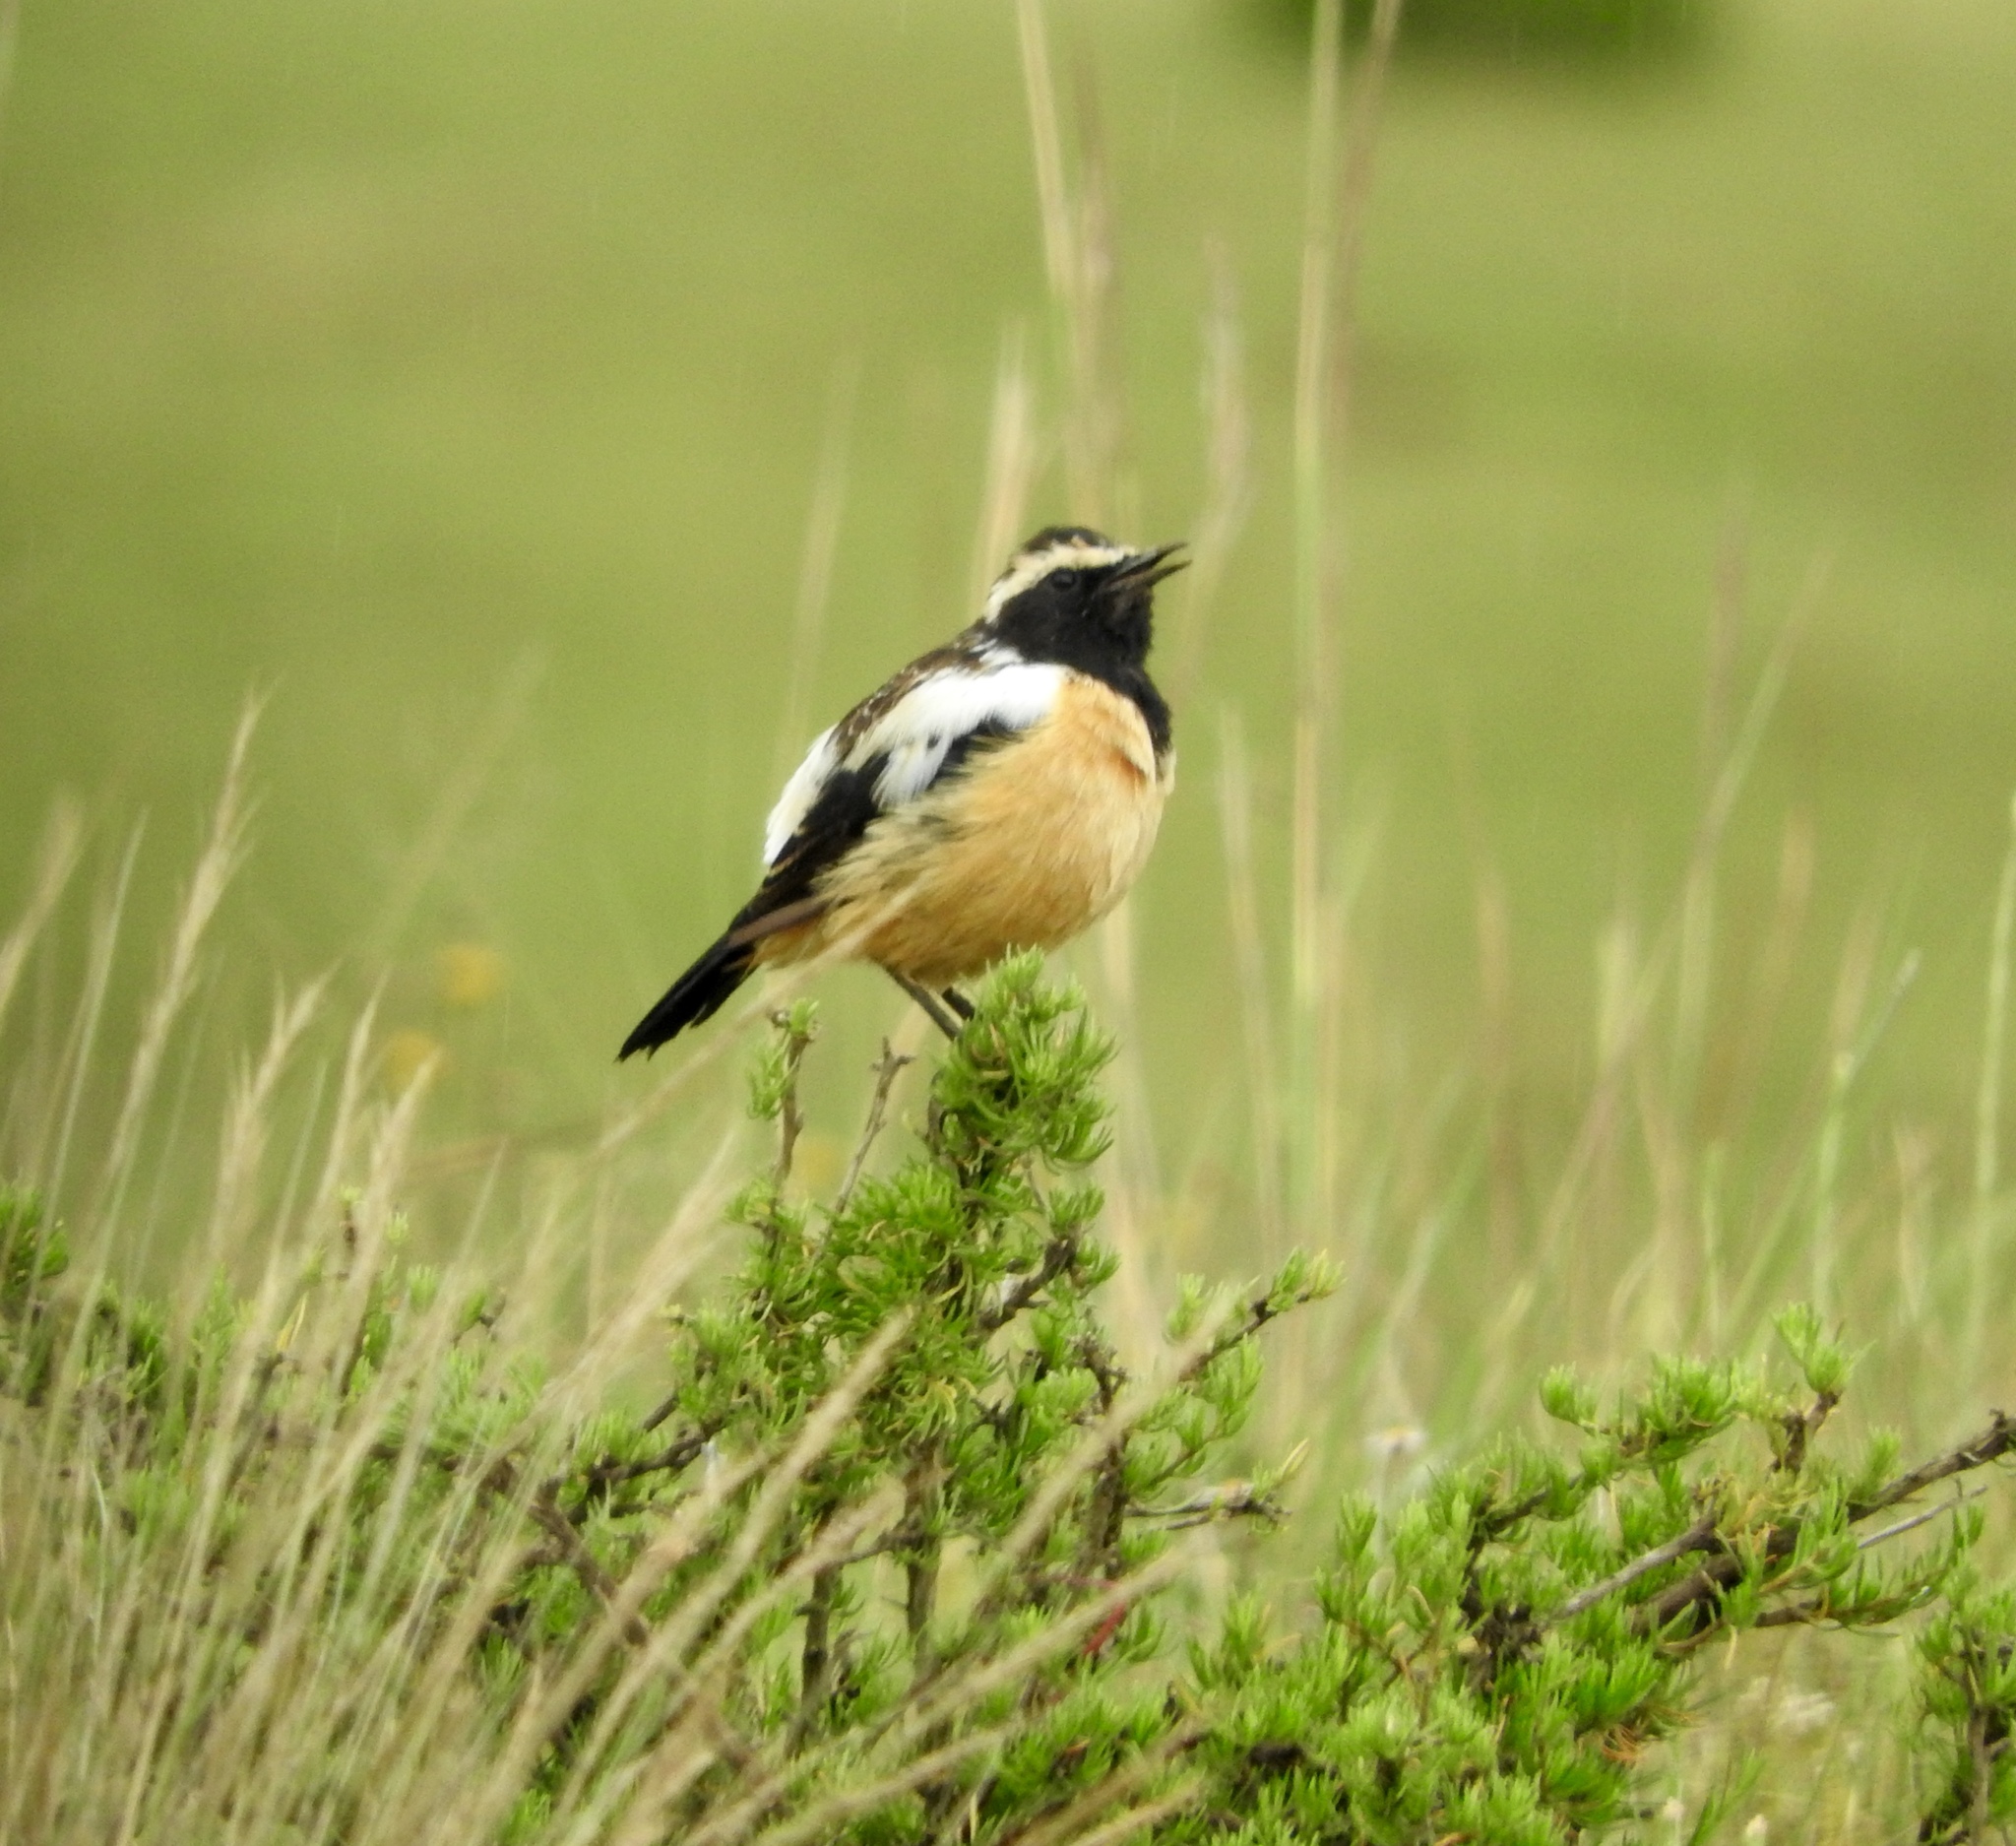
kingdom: Animalia
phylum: Chordata
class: Aves
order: Passeriformes
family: Muscicapidae
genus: Campicoloides
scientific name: Campicoloides bifasciatus
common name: Buff-streaked chat
